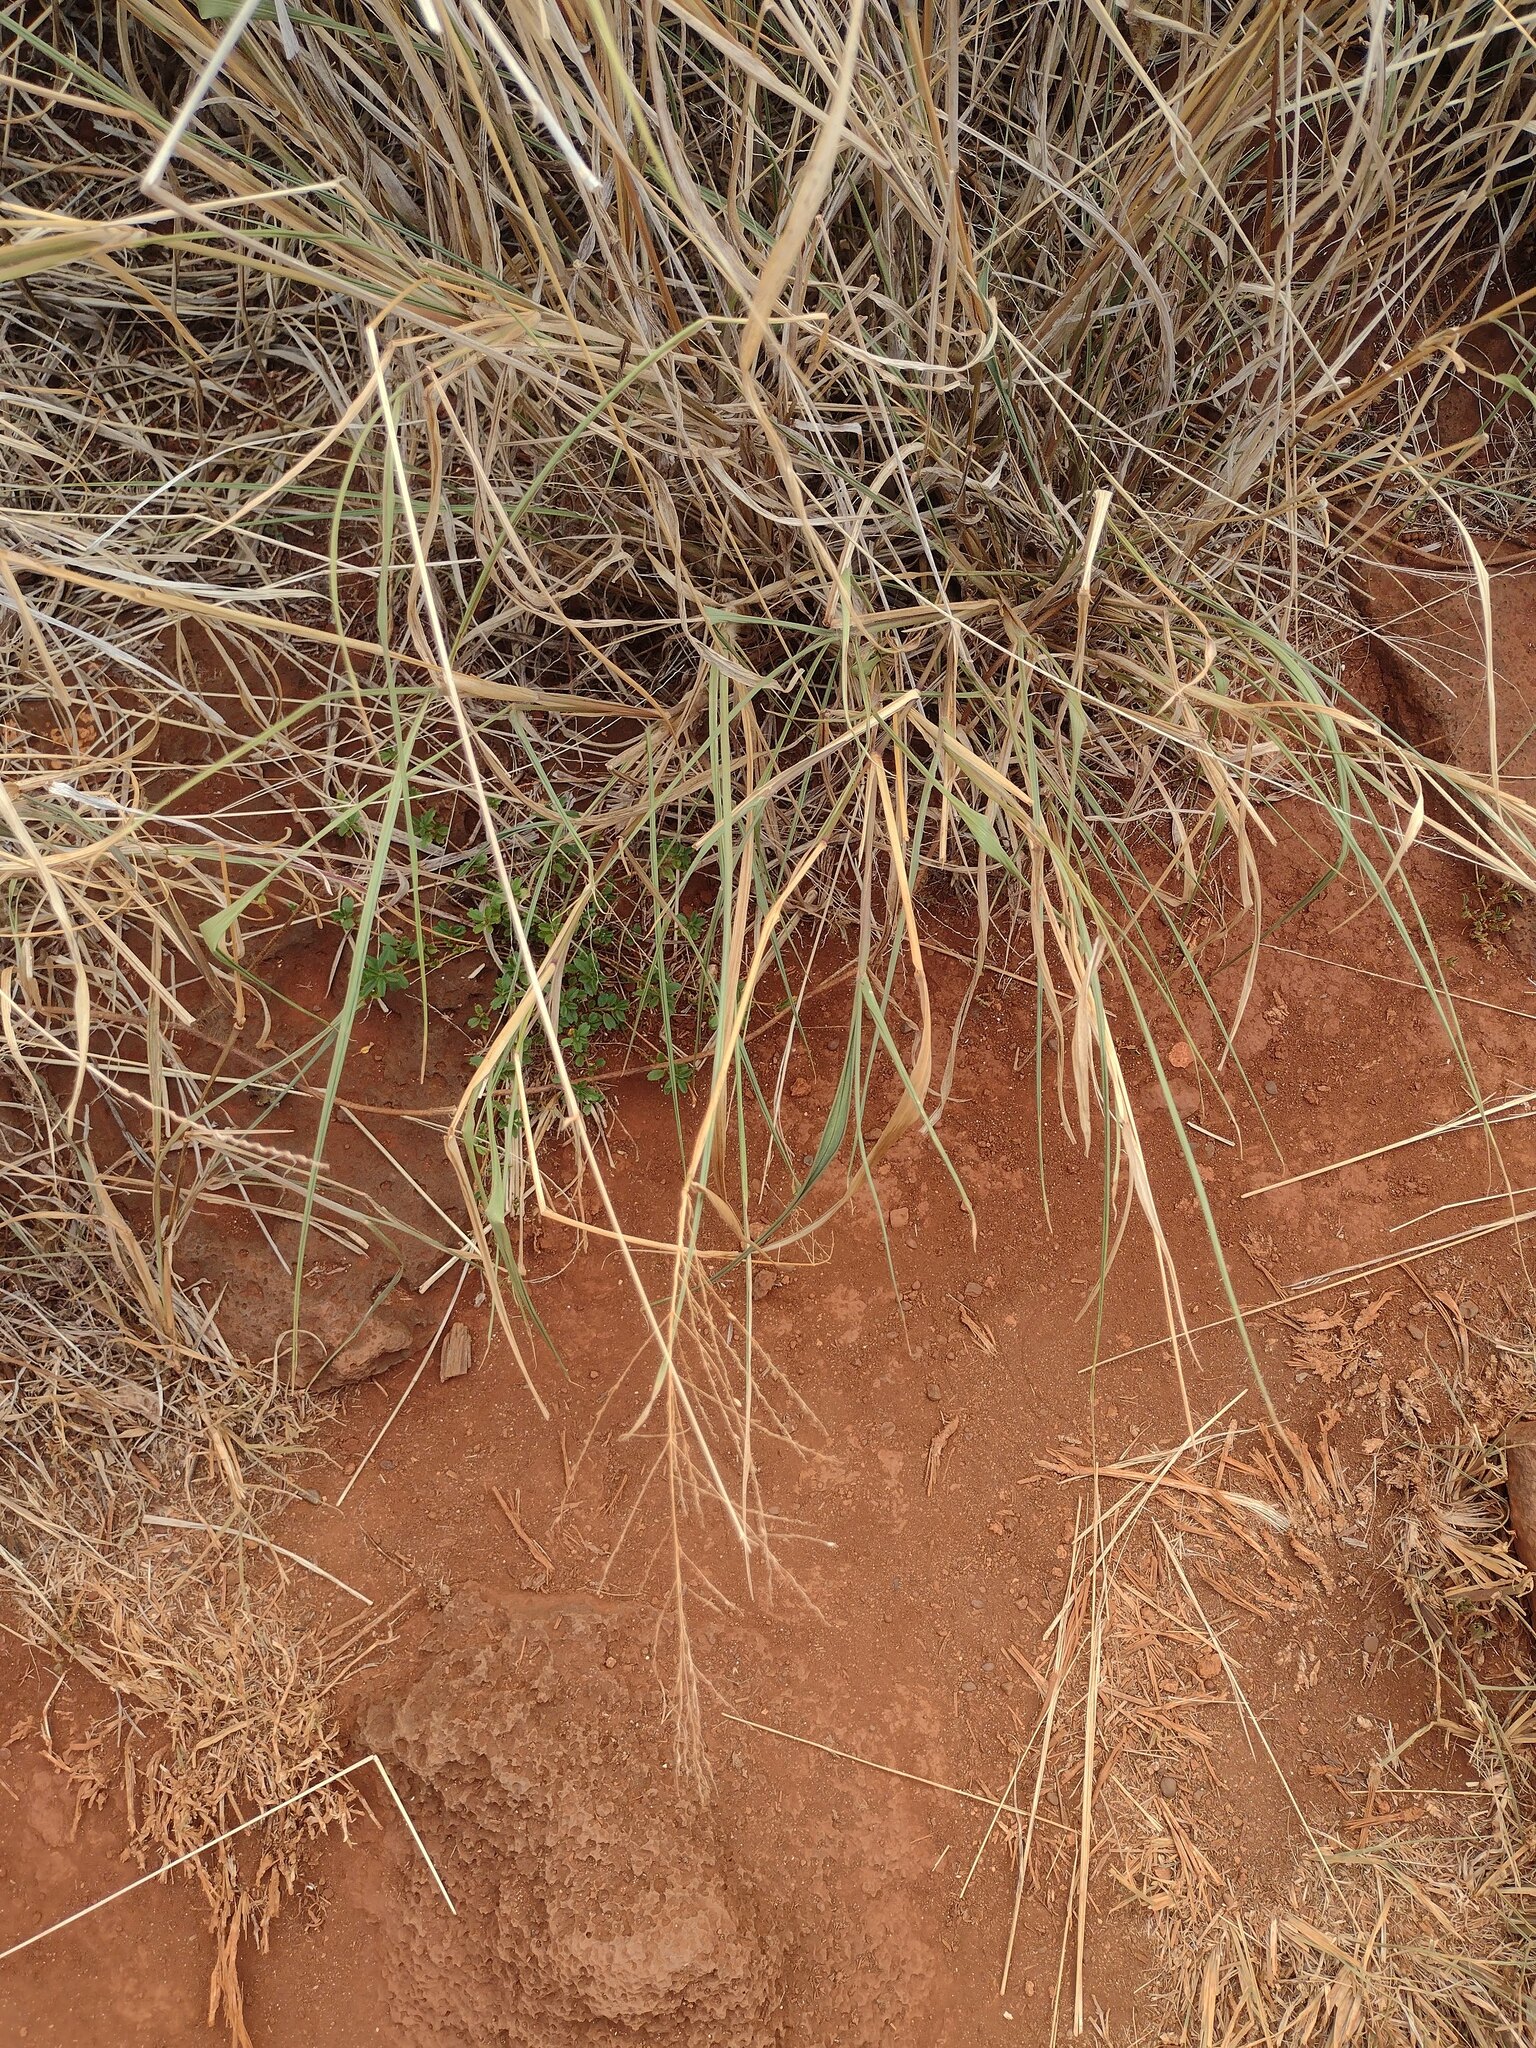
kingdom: Plantae
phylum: Tracheophyta
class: Liliopsida
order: Poales
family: Poaceae
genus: Megathyrsus
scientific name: Megathyrsus maximus
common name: Guineagrass
